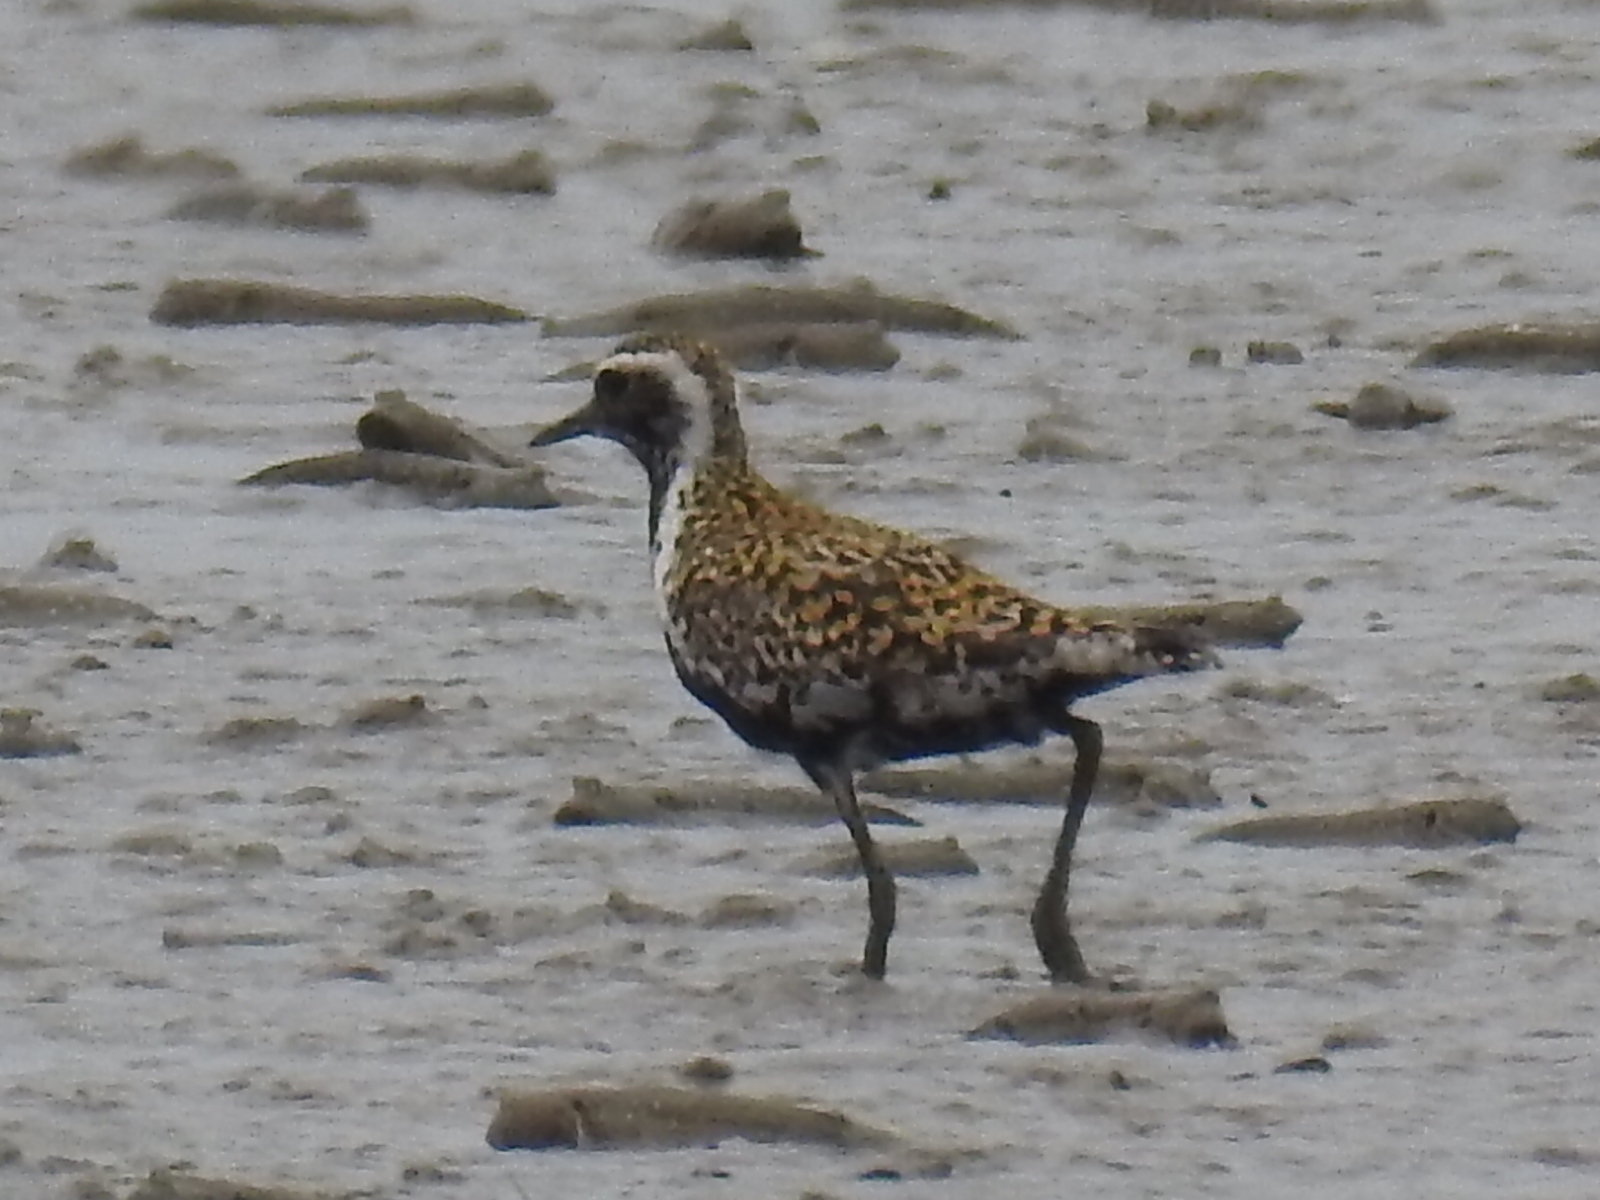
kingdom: Animalia
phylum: Chordata
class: Aves
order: Charadriiformes
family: Charadriidae
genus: Pluvialis
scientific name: Pluvialis fulva
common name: Pacific golden plover
